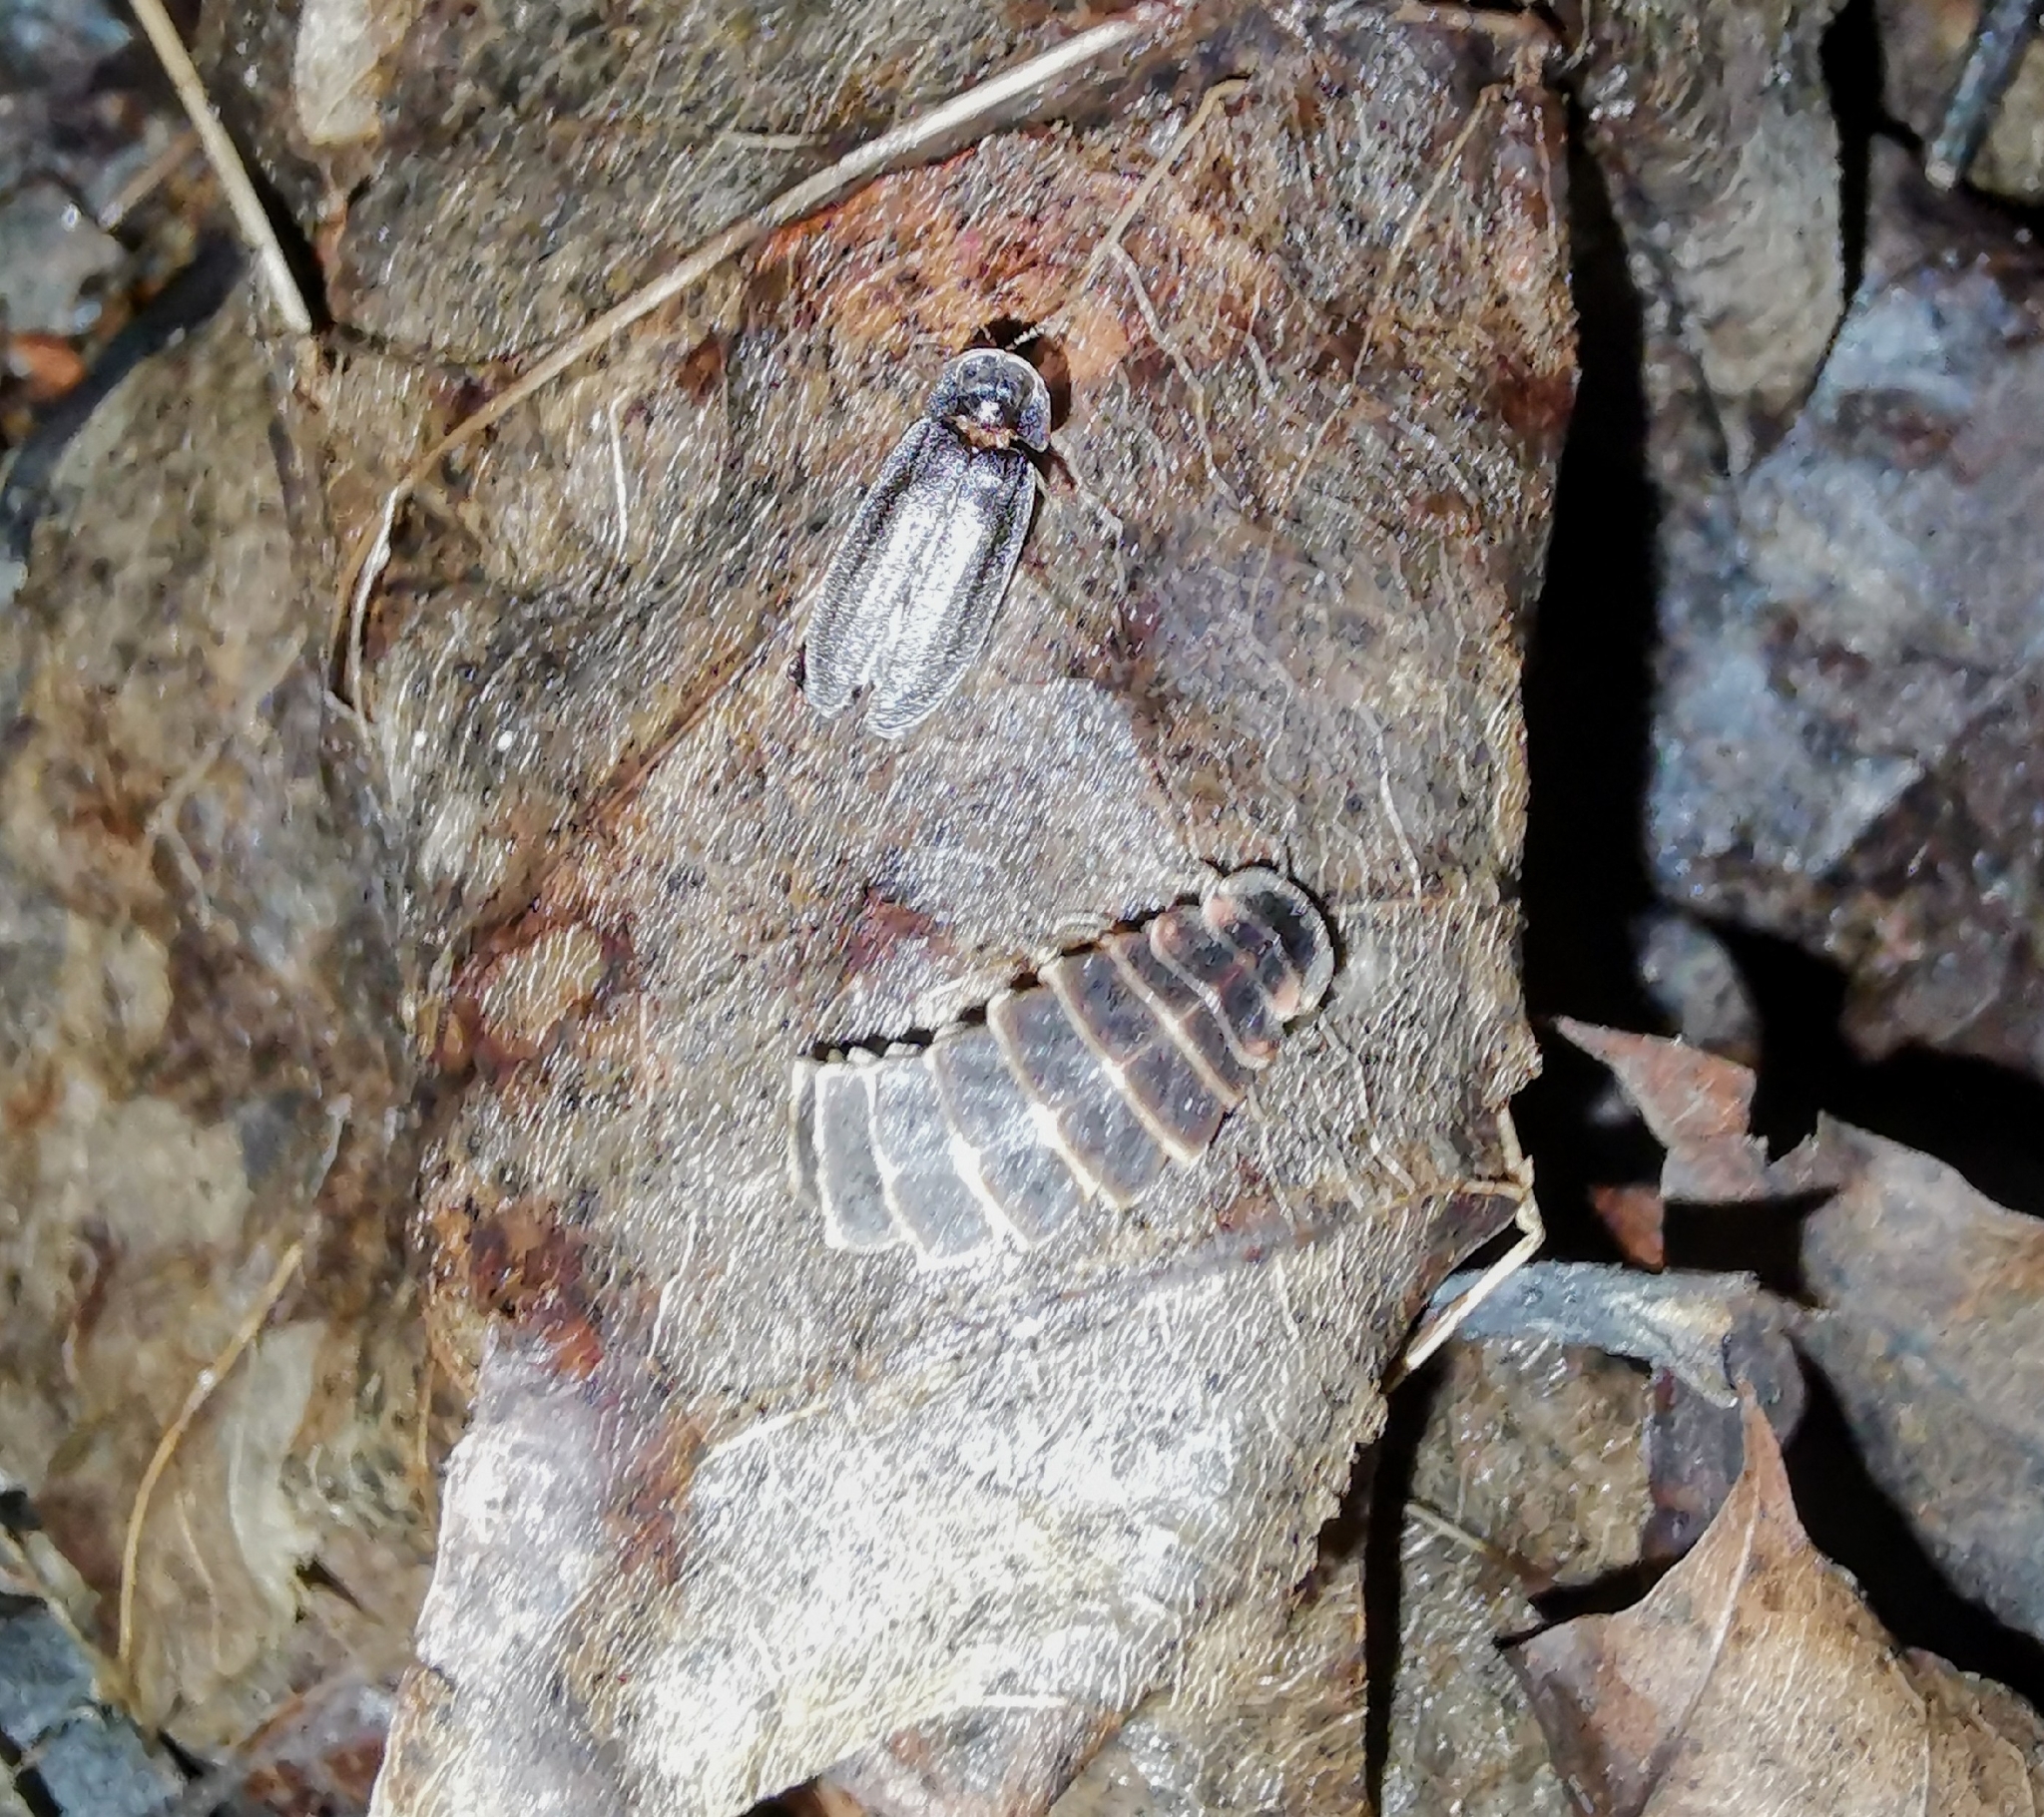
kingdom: Animalia
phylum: Arthropoda
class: Insecta
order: Coleoptera
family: Lampyridae
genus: Lampyris
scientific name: Lampyris noctiluca
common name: Glow-worm
